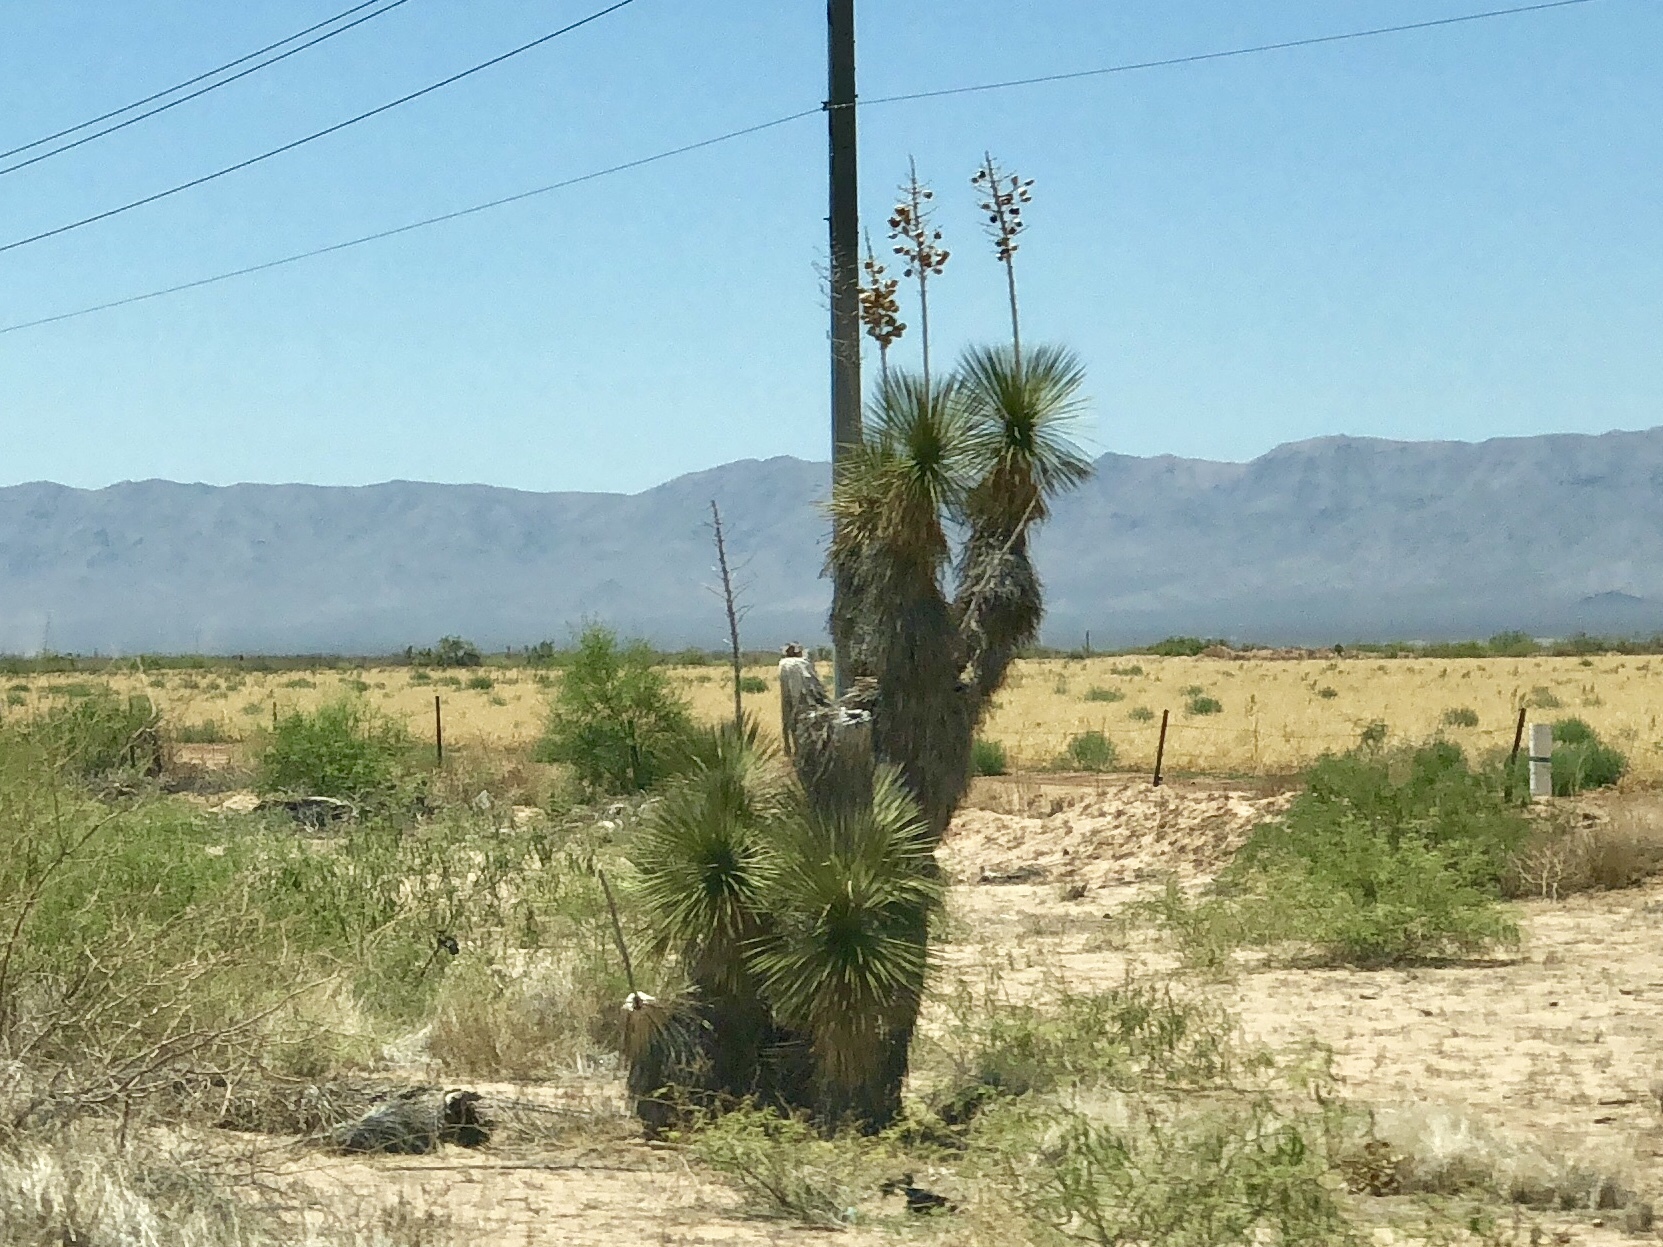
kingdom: Plantae
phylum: Tracheophyta
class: Liliopsida
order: Asparagales
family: Asparagaceae
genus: Yucca
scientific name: Yucca elata
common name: Palmella
